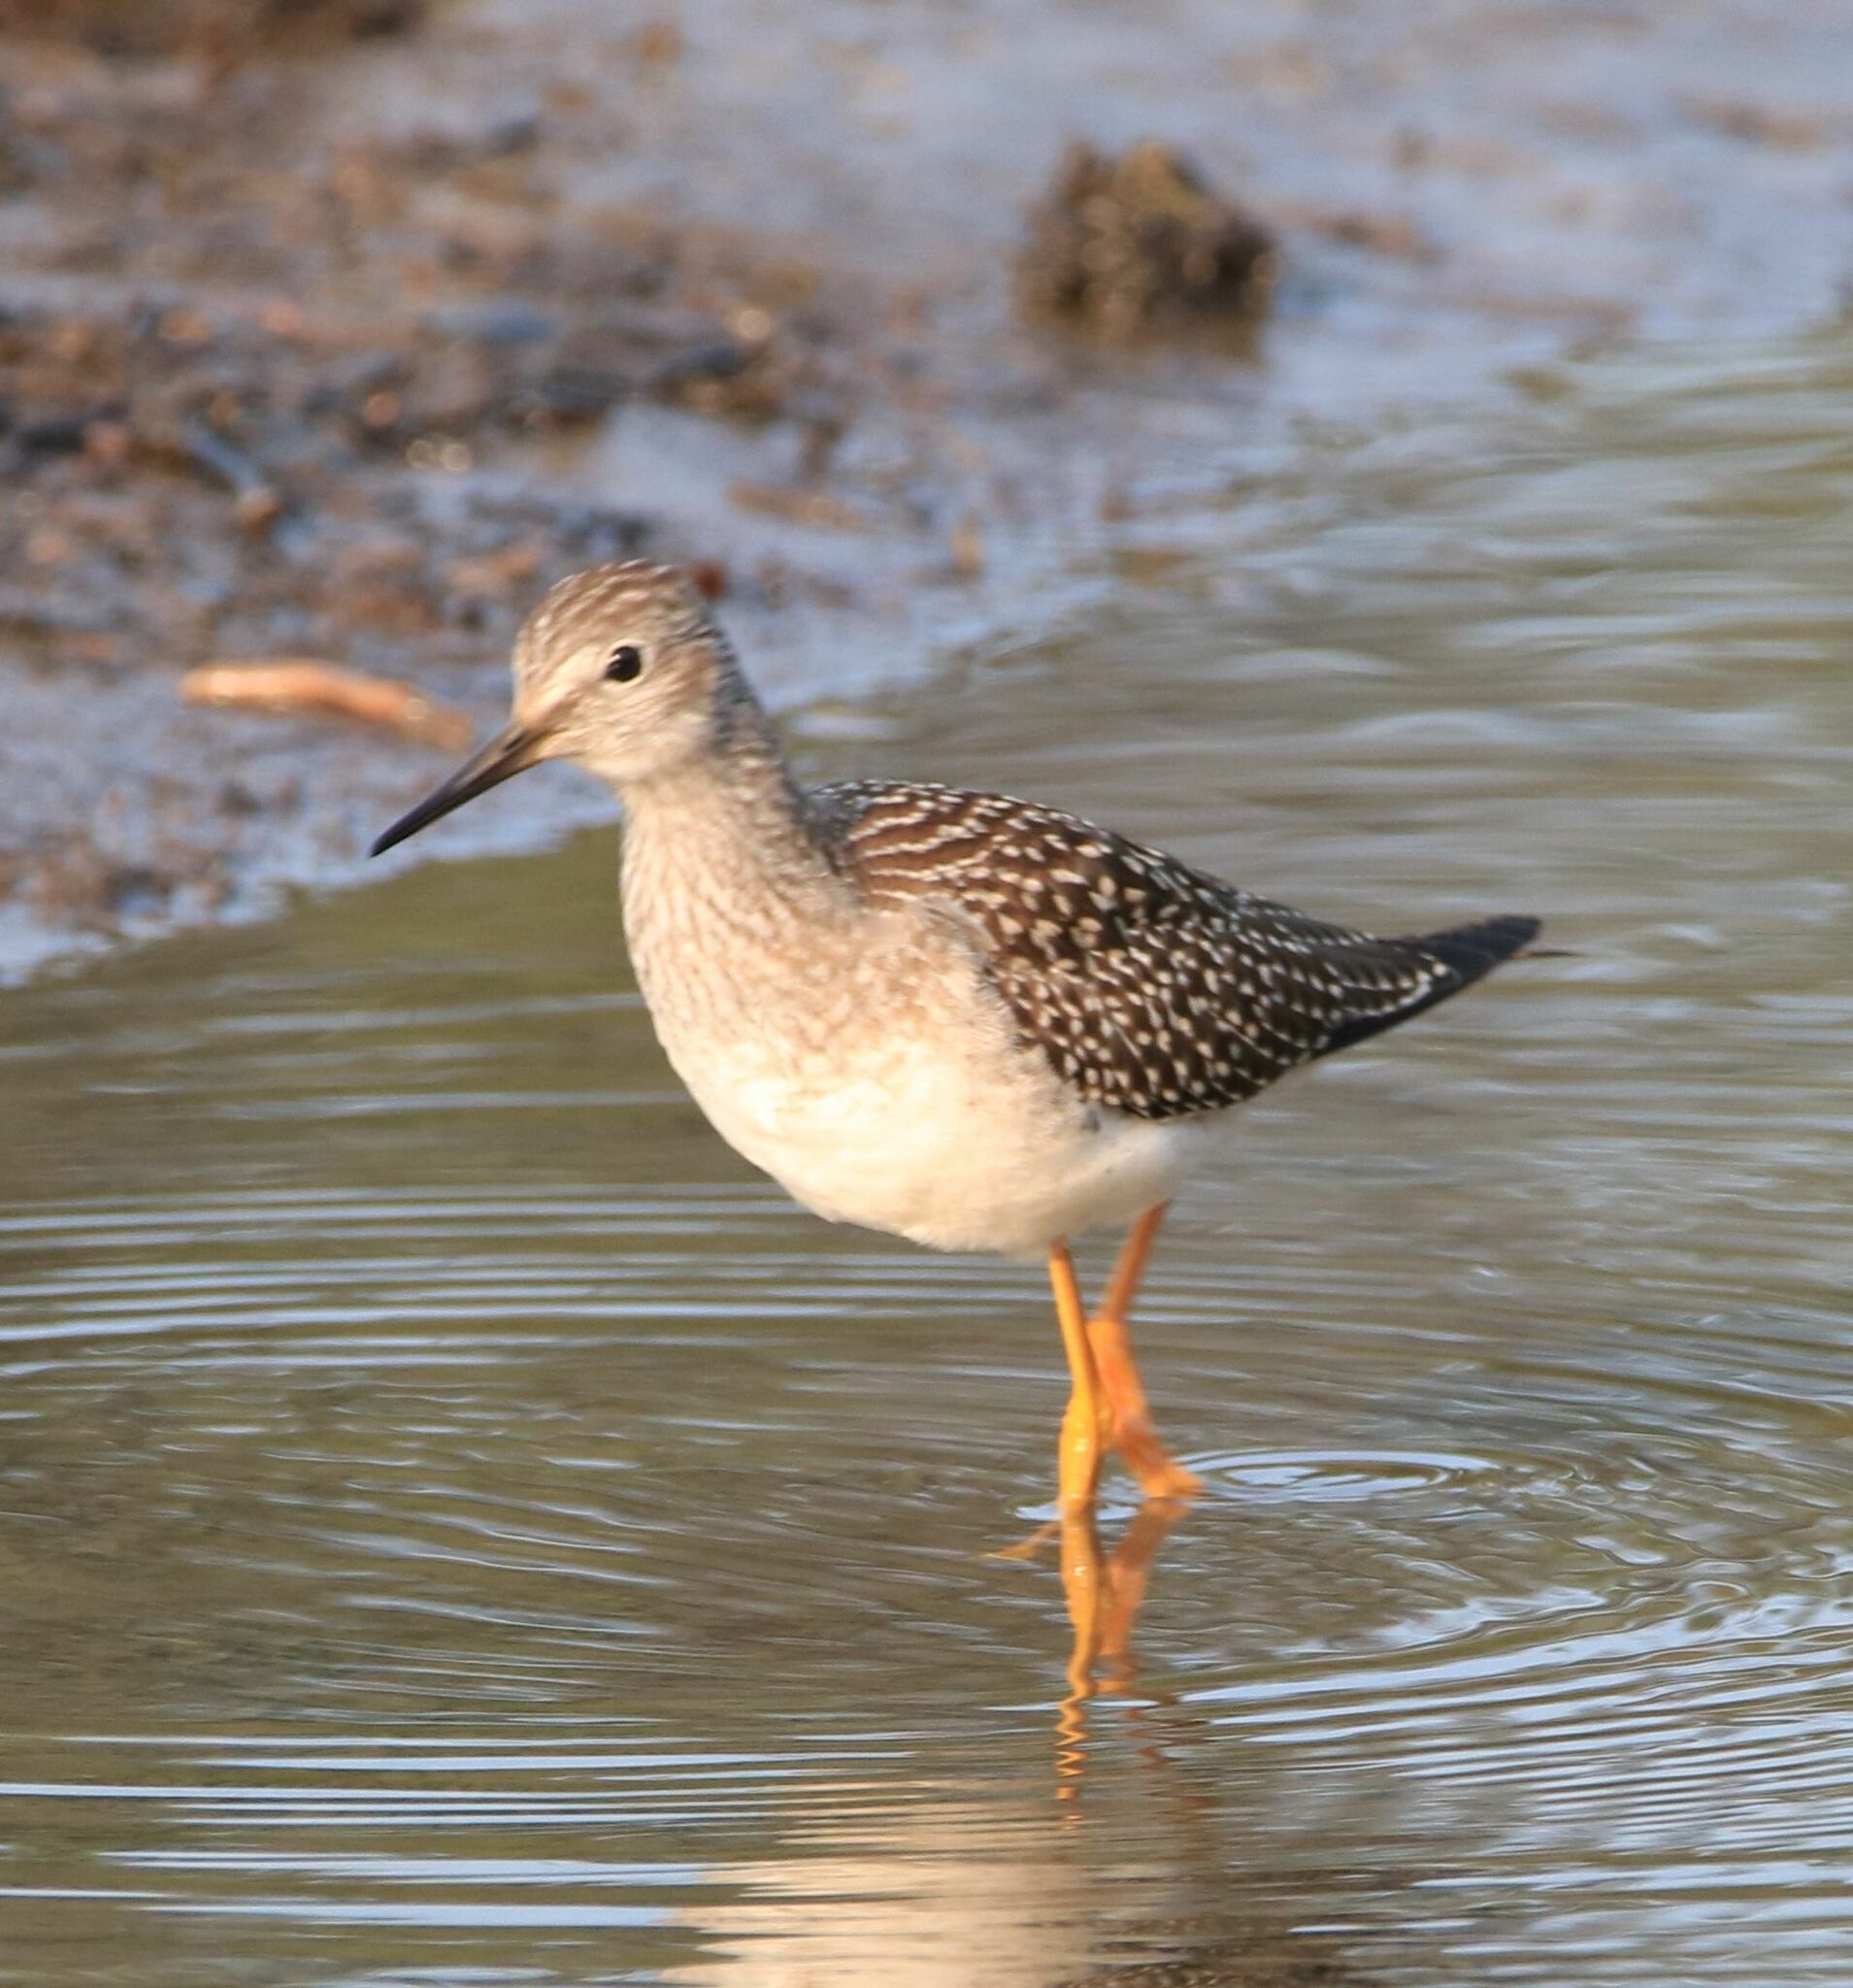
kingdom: Animalia
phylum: Chordata
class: Aves
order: Charadriiformes
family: Scolopacidae
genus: Tringa
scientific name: Tringa flavipes
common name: Lesser yellowlegs
